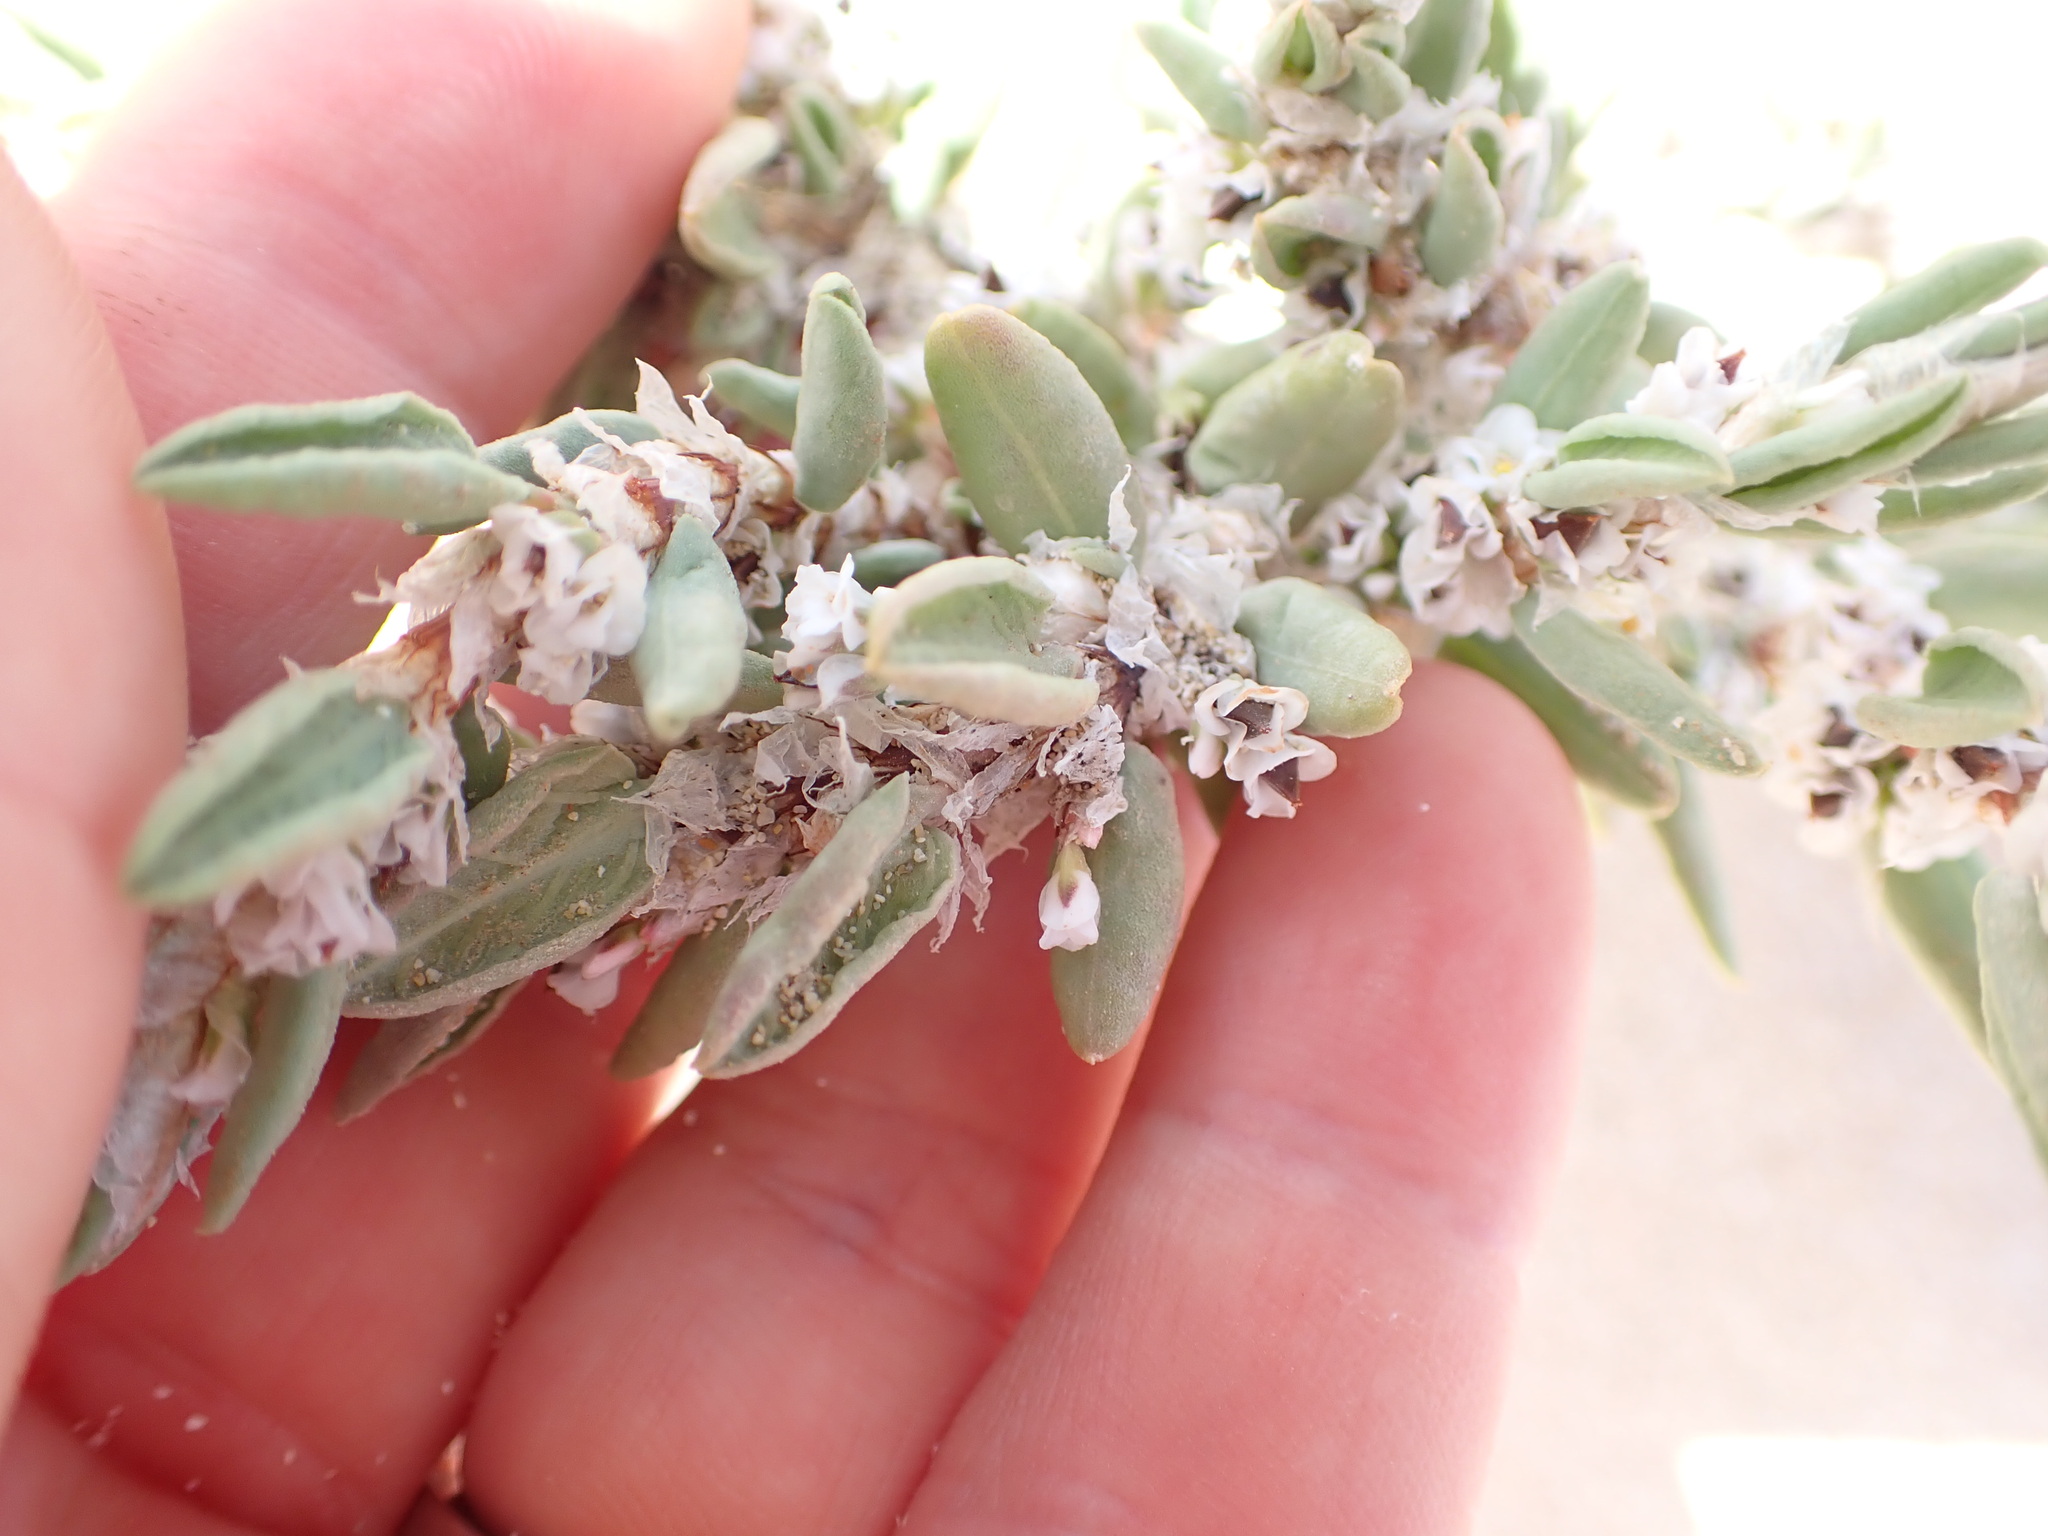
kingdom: Plantae
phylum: Tracheophyta
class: Magnoliopsida
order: Caryophyllales
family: Polygonaceae
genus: Polygonum
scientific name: Polygonum maritimum
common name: Sea knotgrass
